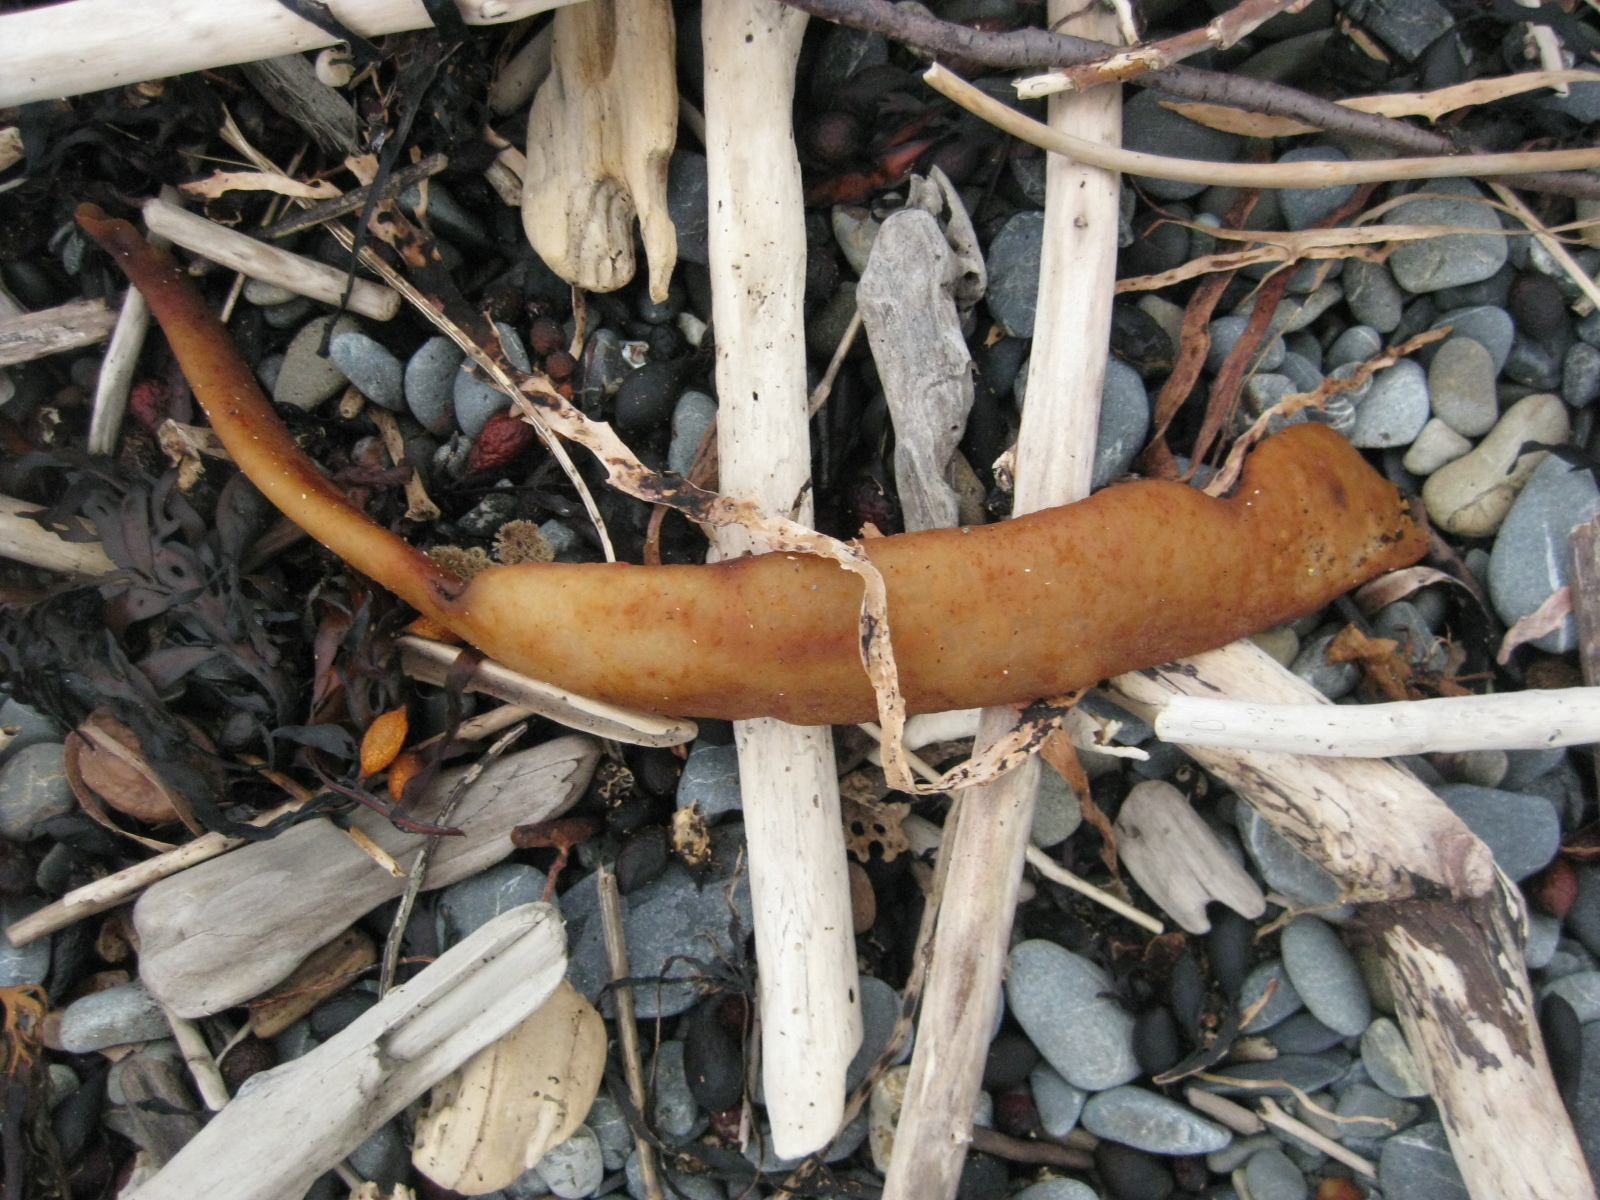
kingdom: Chromista
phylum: Ochrophyta
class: Phaeophyceae
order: Fucales
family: Durvillaeaceae
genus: Durvillaea
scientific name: Durvillaea antarctica
